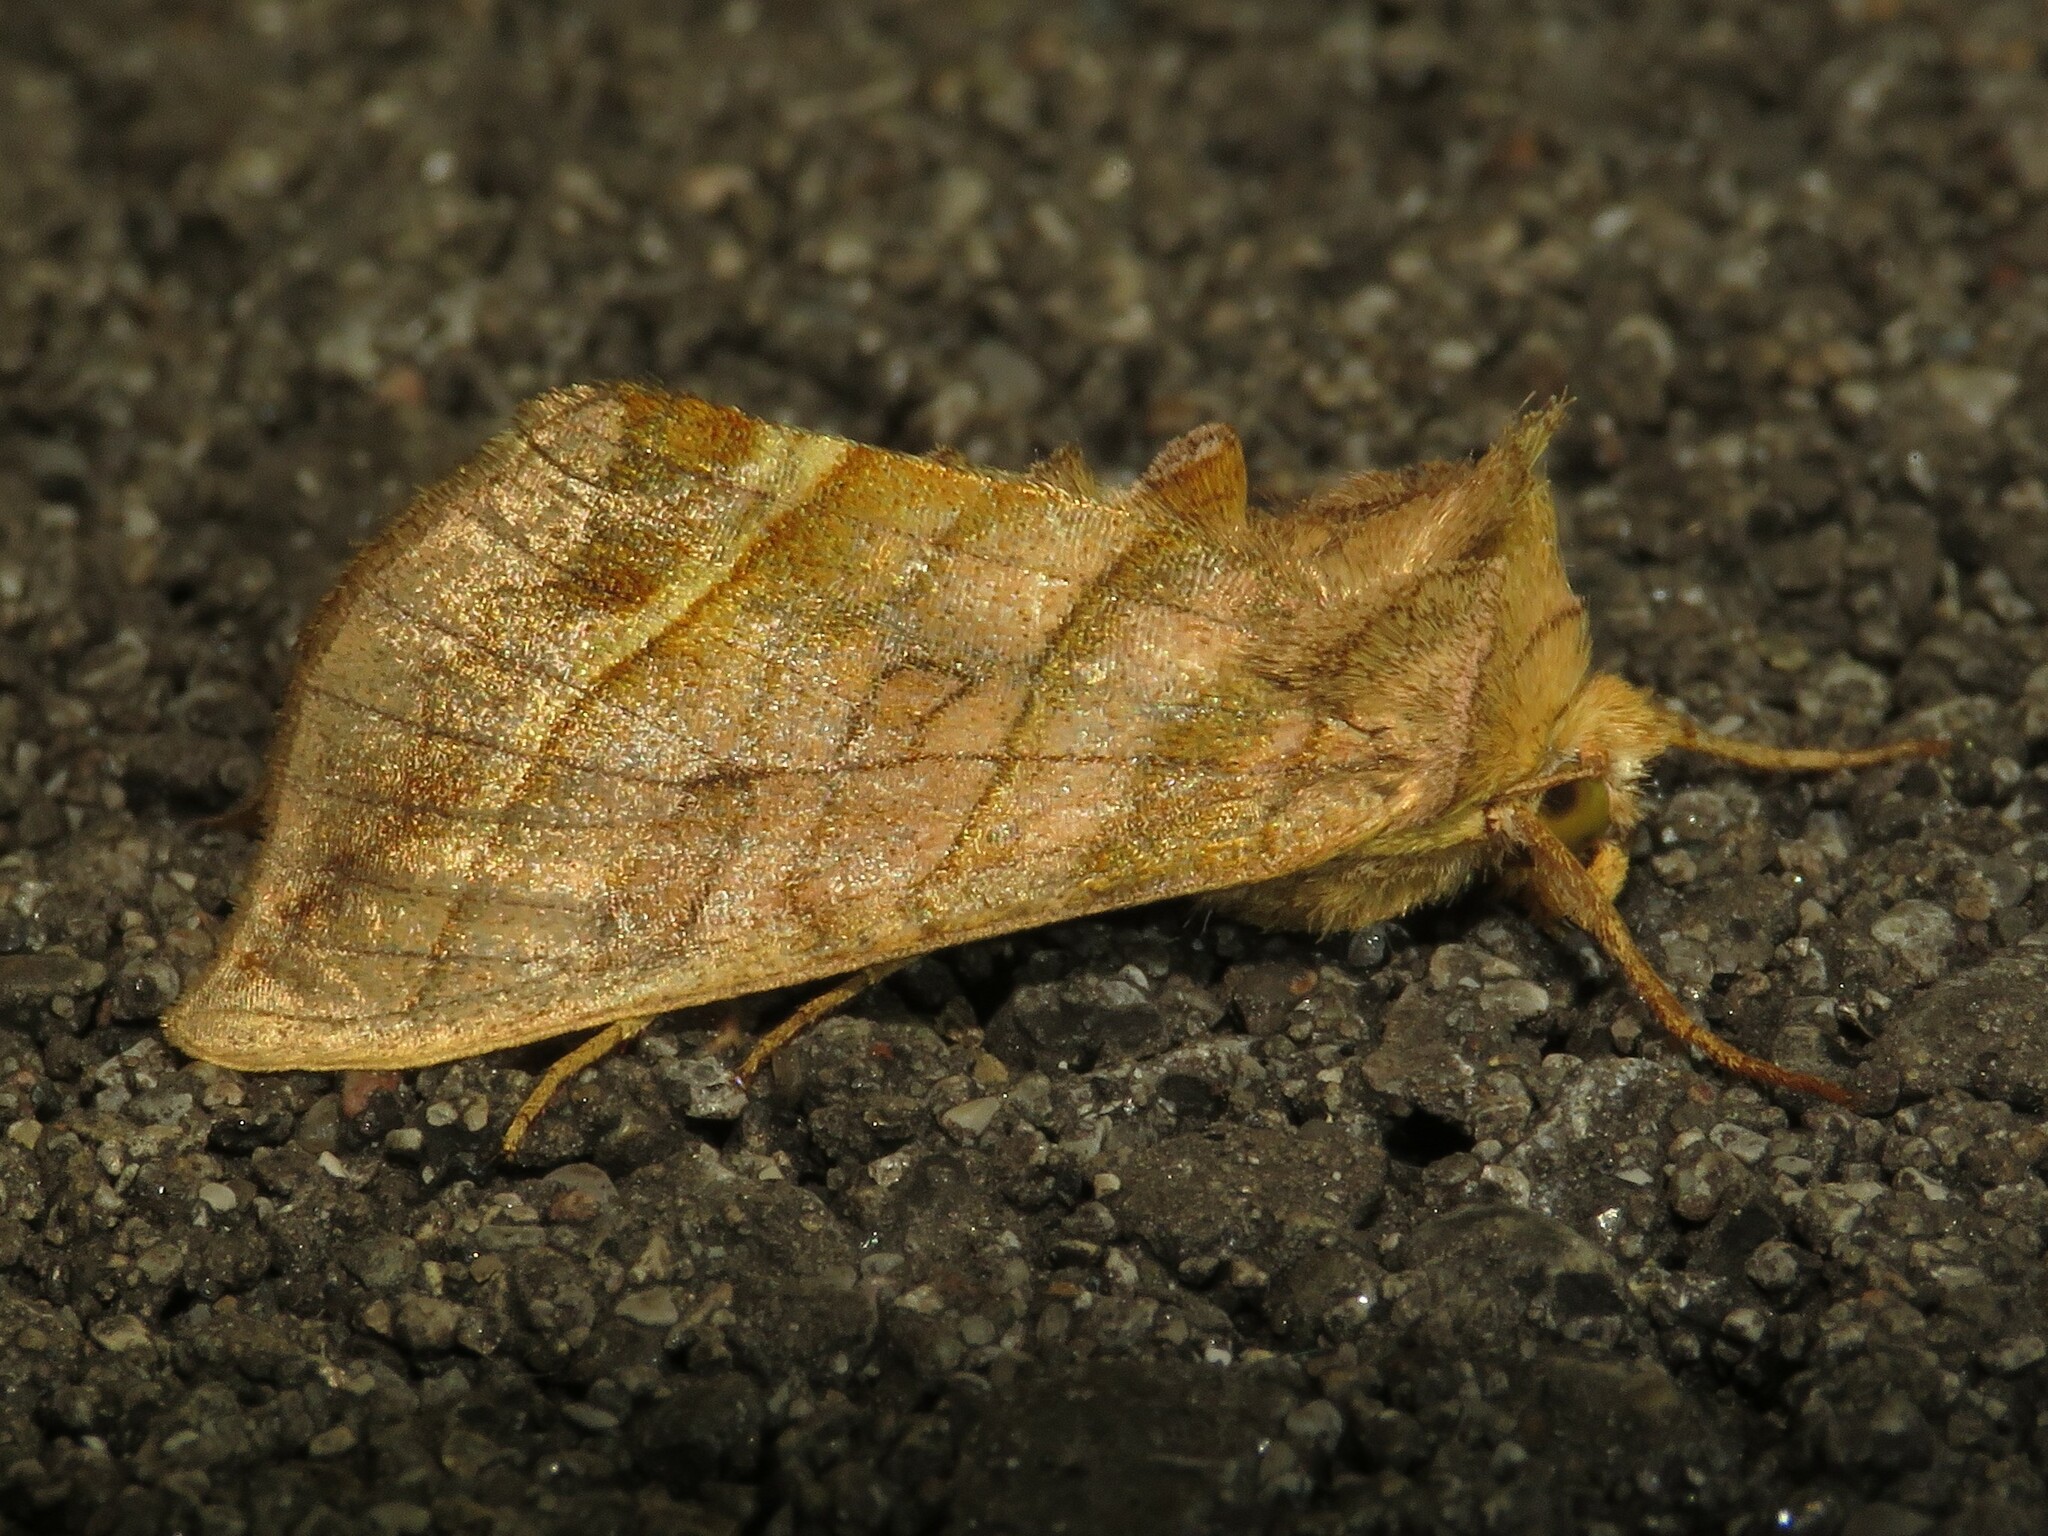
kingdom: Animalia
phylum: Arthropoda
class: Insecta
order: Lepidoptera
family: Noctuidae
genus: Diachrysia
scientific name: Diachrysia aereoides
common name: Dark-spotted looper moth
